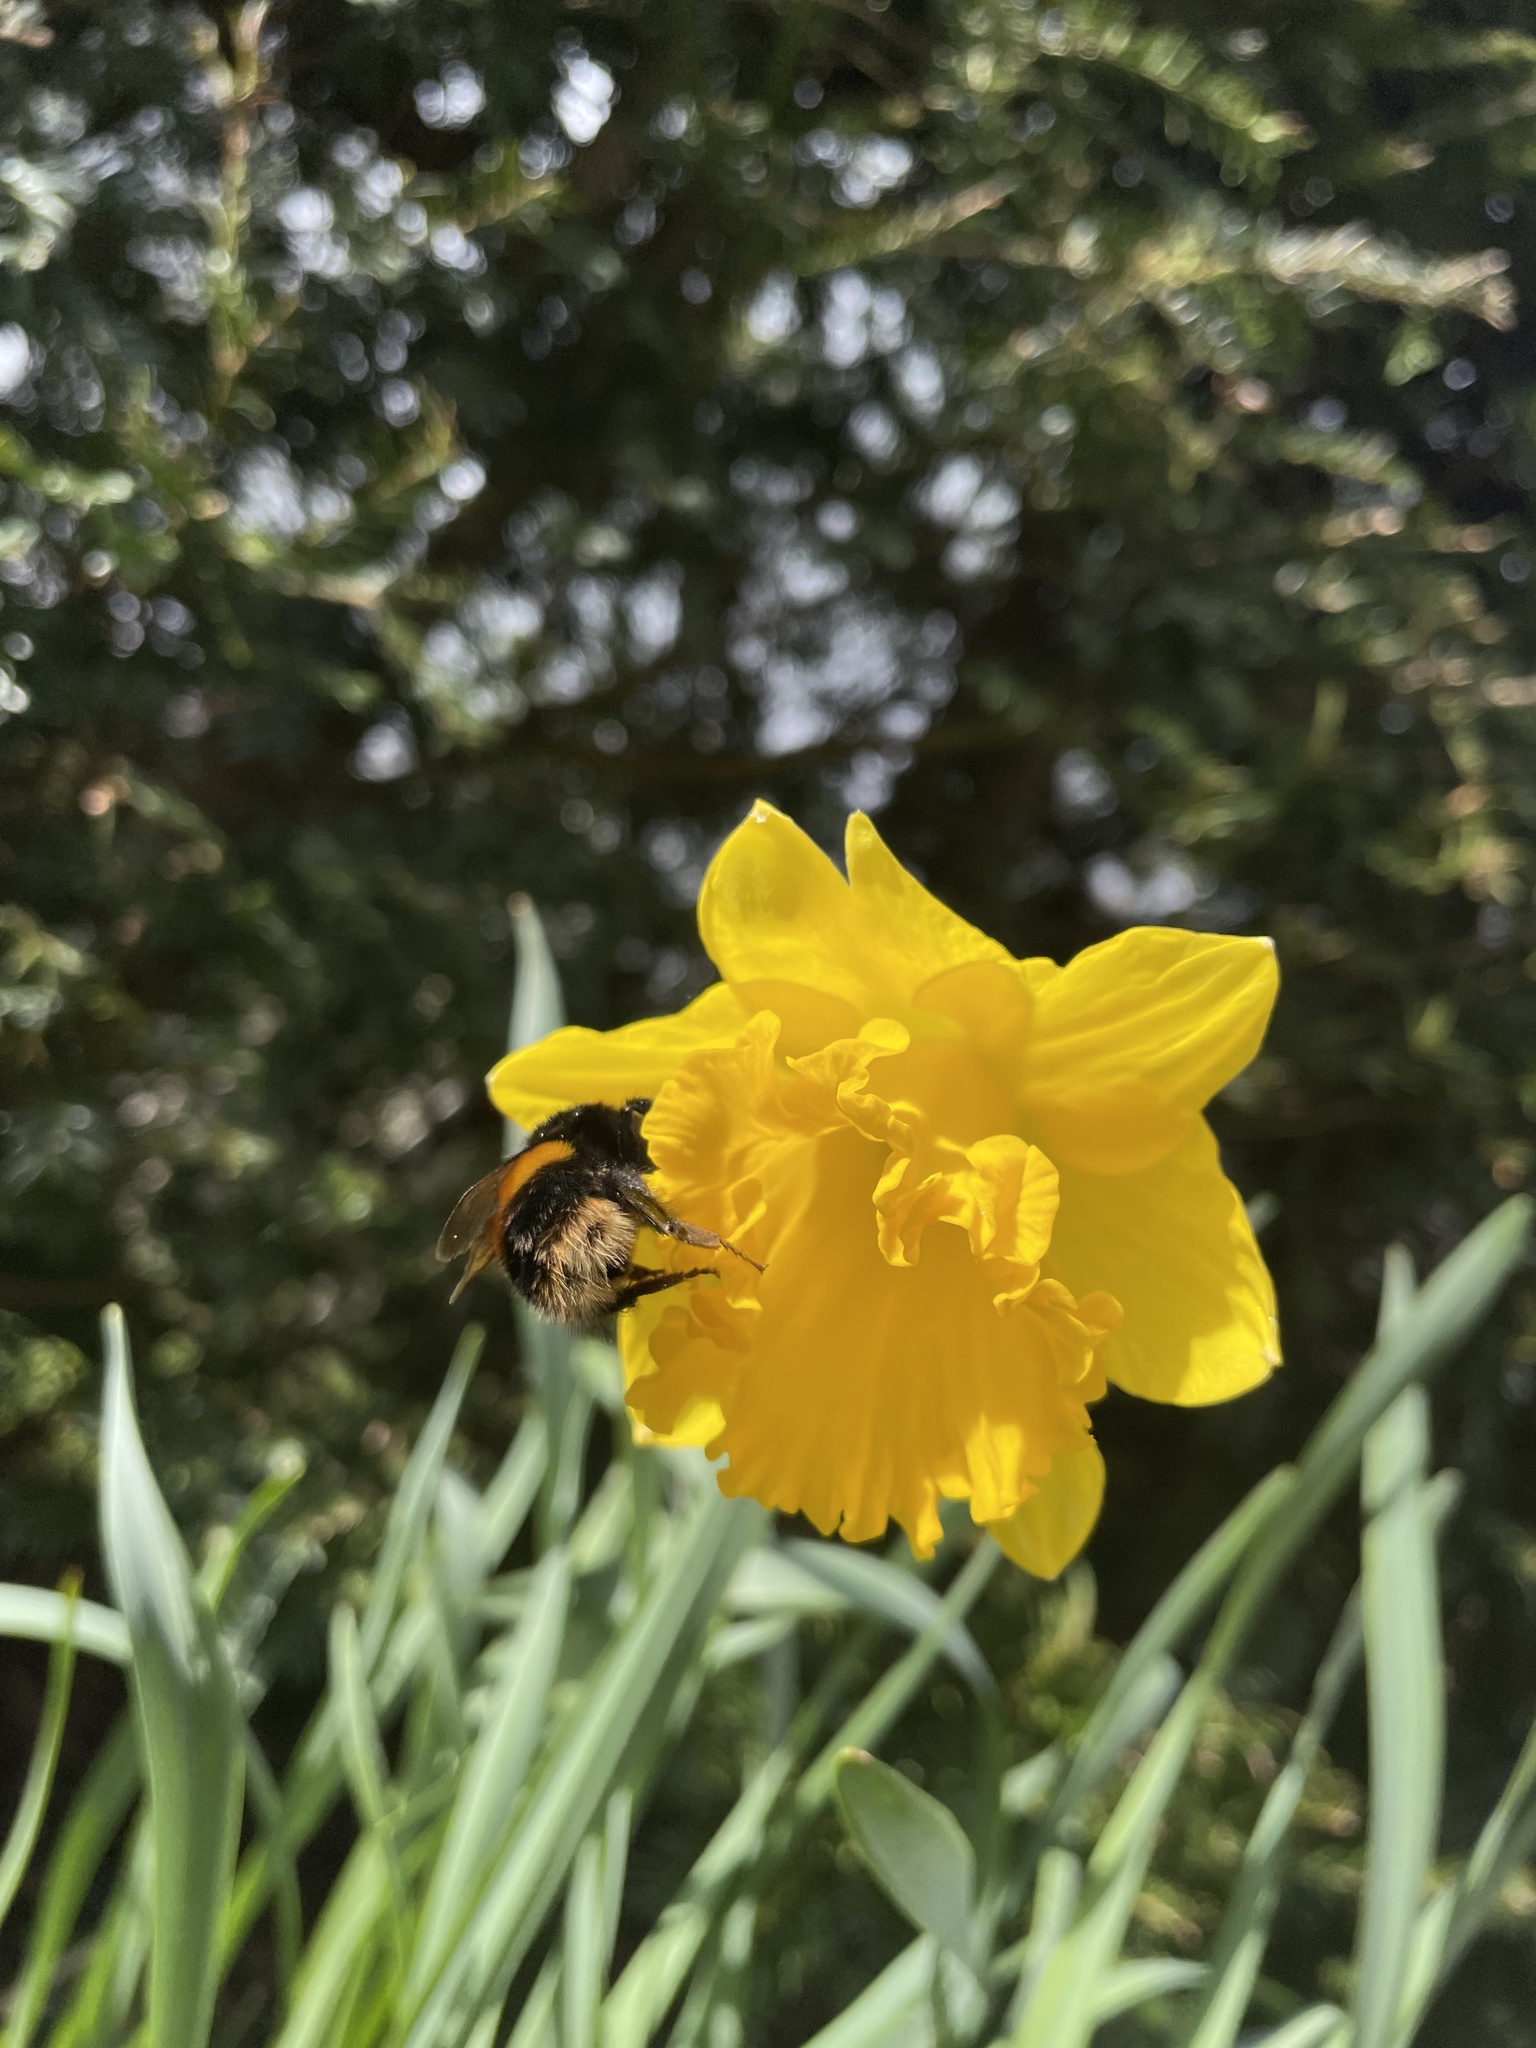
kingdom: Animalia
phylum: Arthropoda
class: Insecta
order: Hymenoptera
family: Apidae
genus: Bombus
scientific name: Bombus terrestris
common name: Buff-tailed bumblebee
